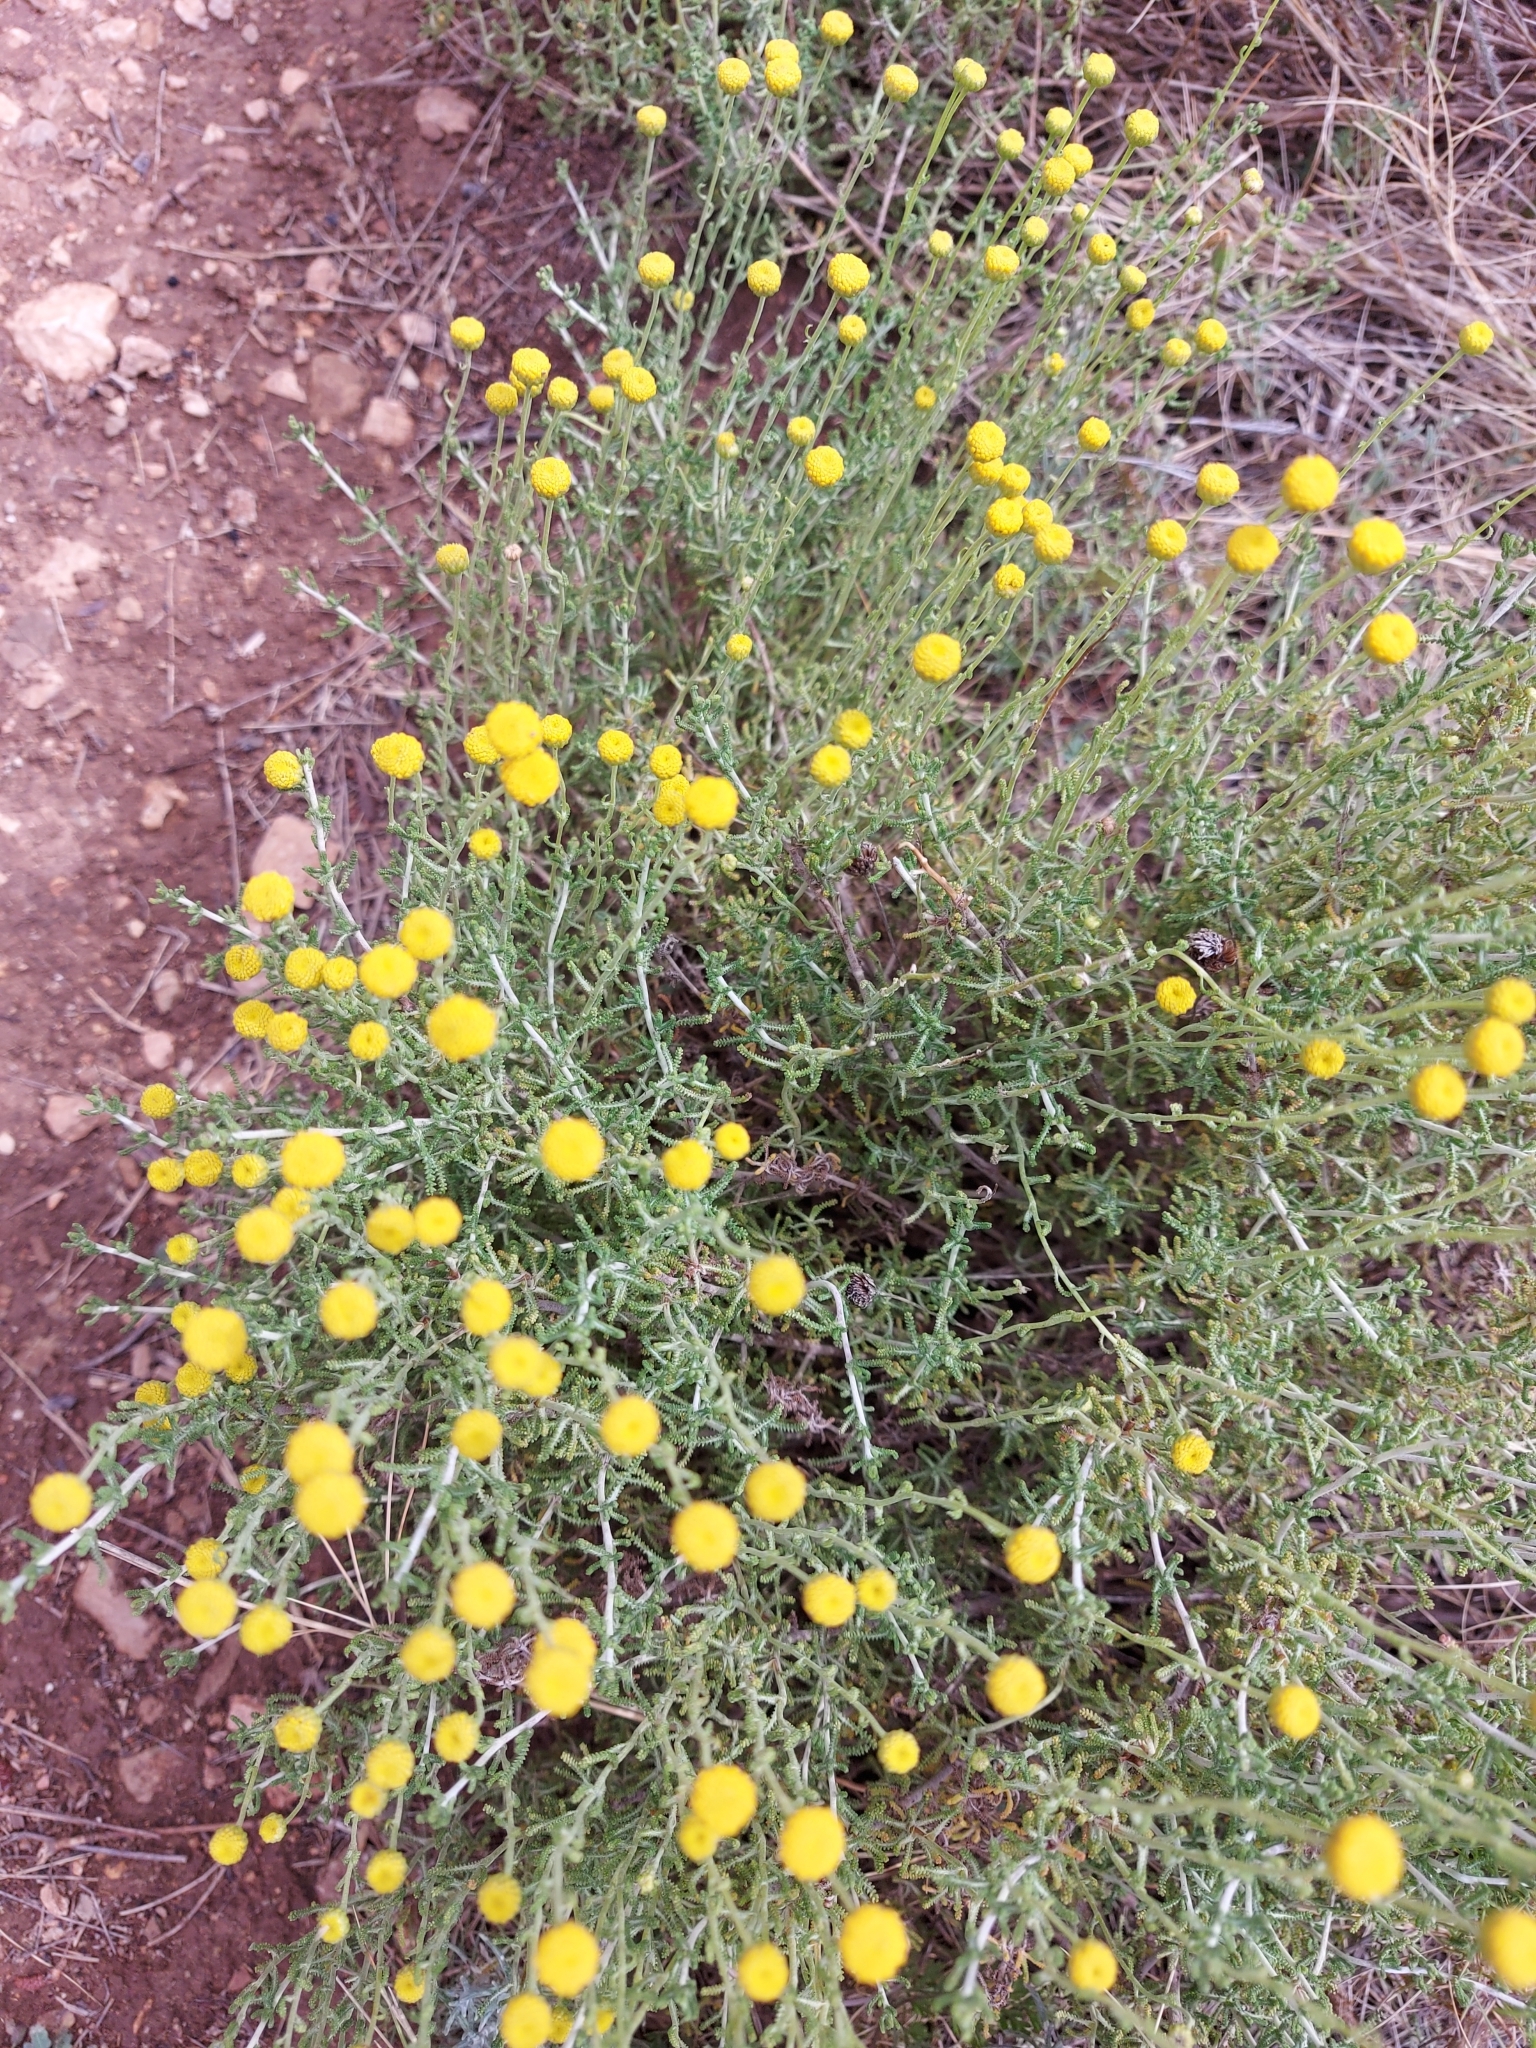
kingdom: Plantae
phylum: Tracheophyta
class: Magnoliopsida
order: Asterales
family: Asteraceae
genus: Santolina
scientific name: Santolina chamaecyparissus
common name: Lavender-cotton
